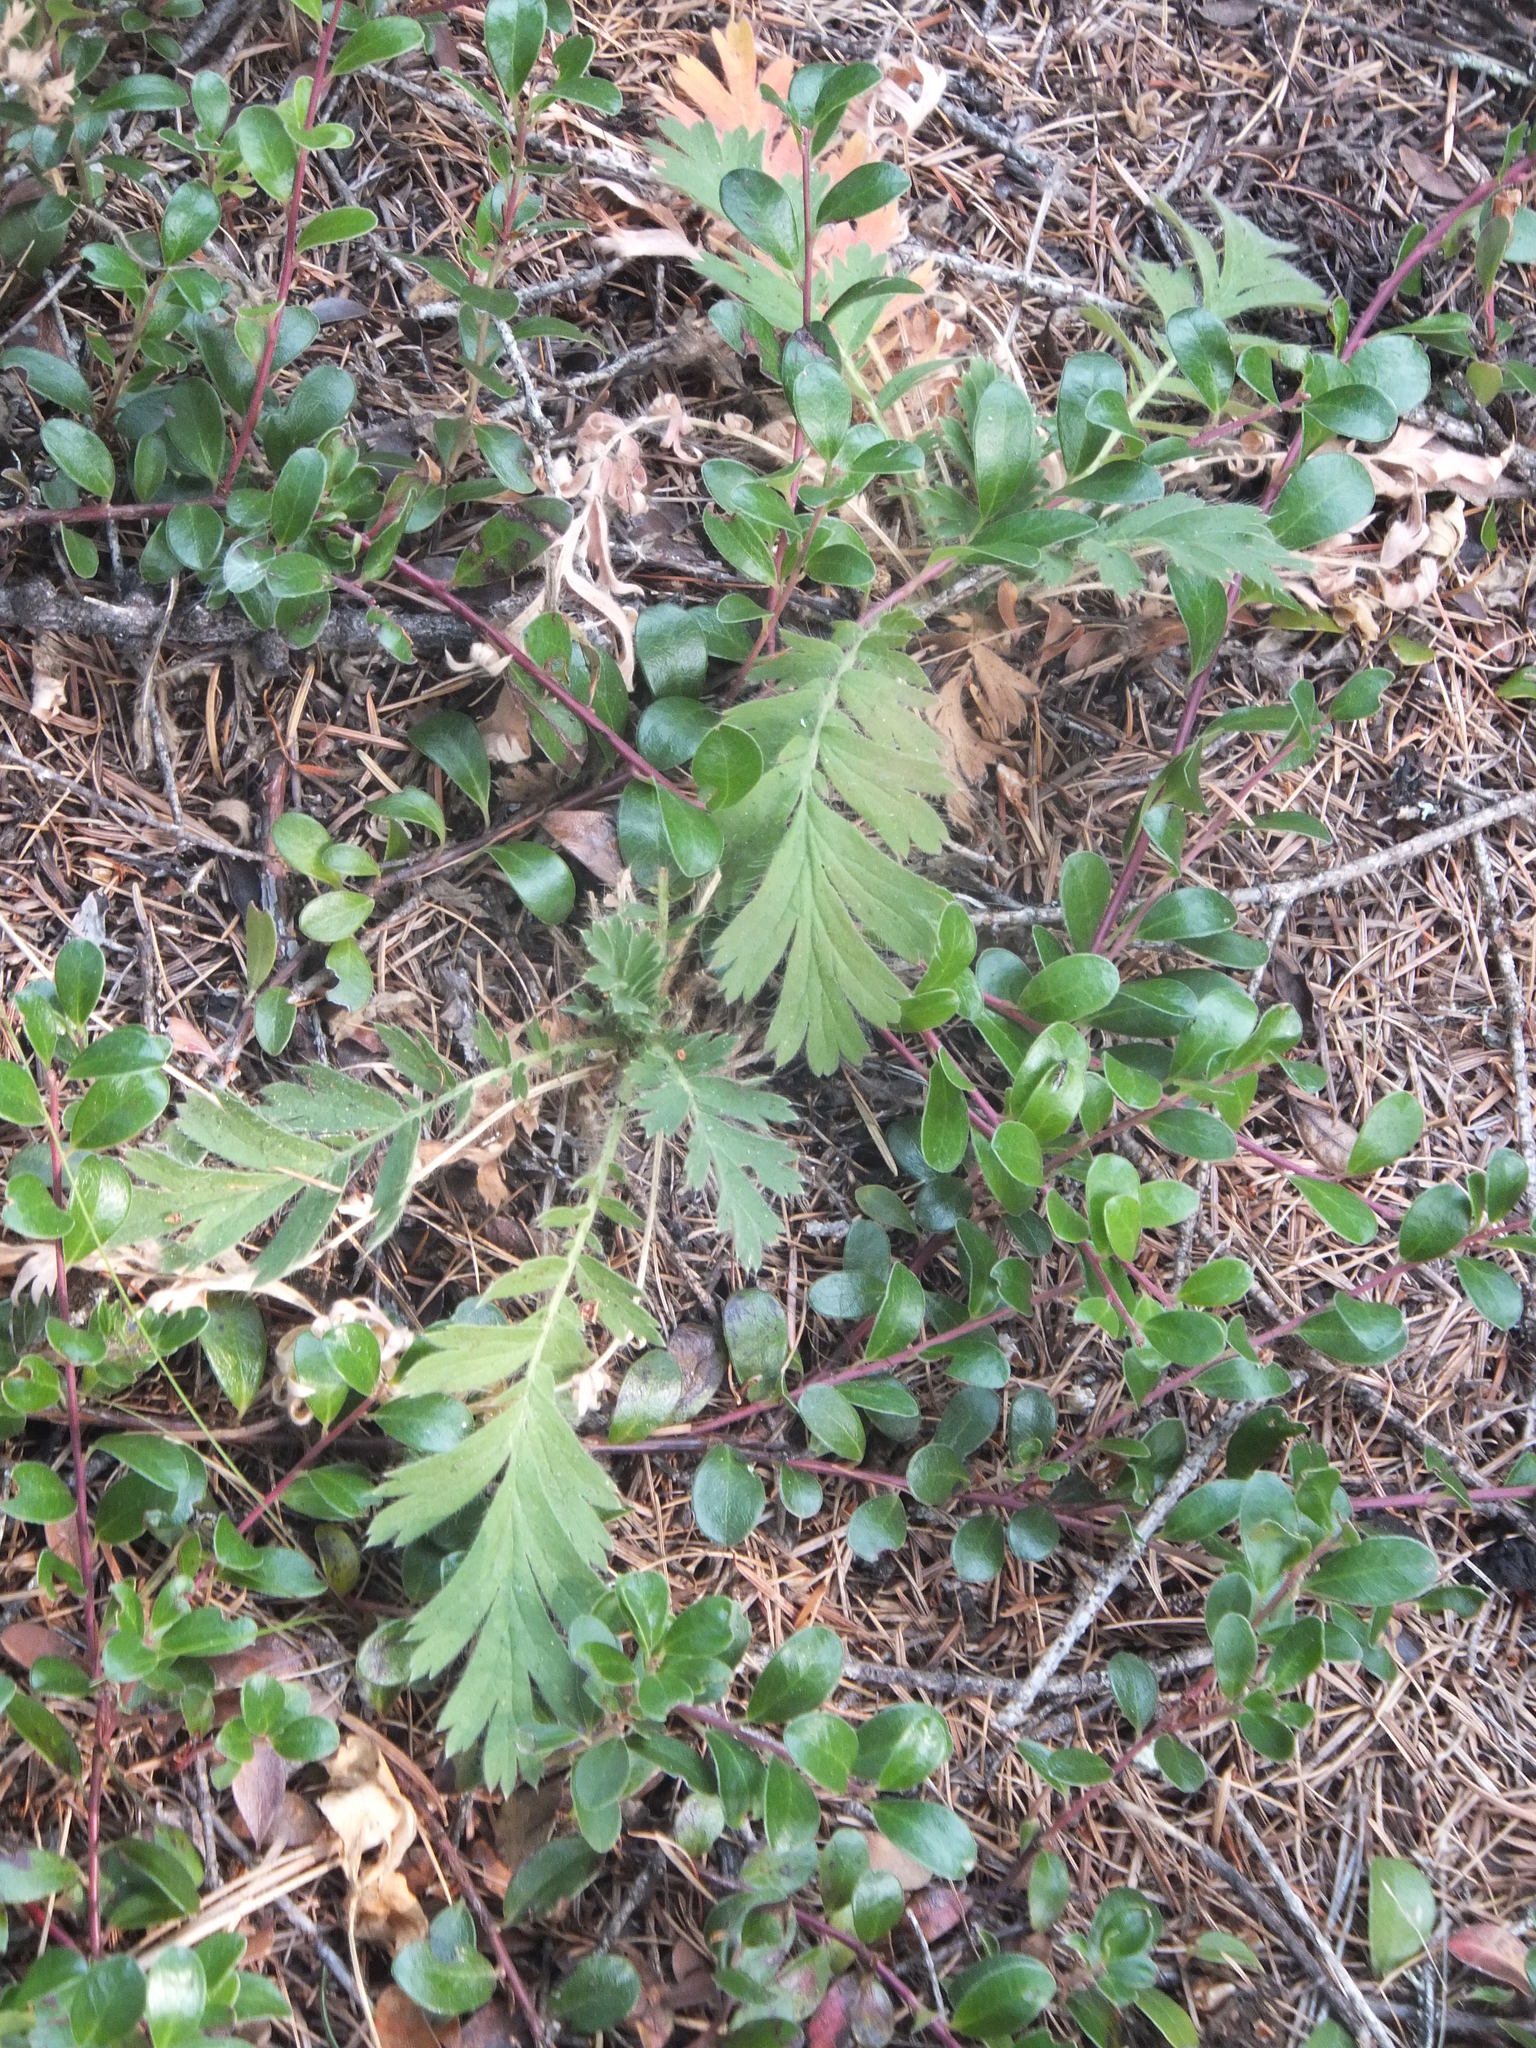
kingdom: Plantae
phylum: Tracheophyta
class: Magnoliopsida
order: Rosales
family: Rosaceae
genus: Geum
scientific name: Geum triflorum
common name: Old man's whiskers
